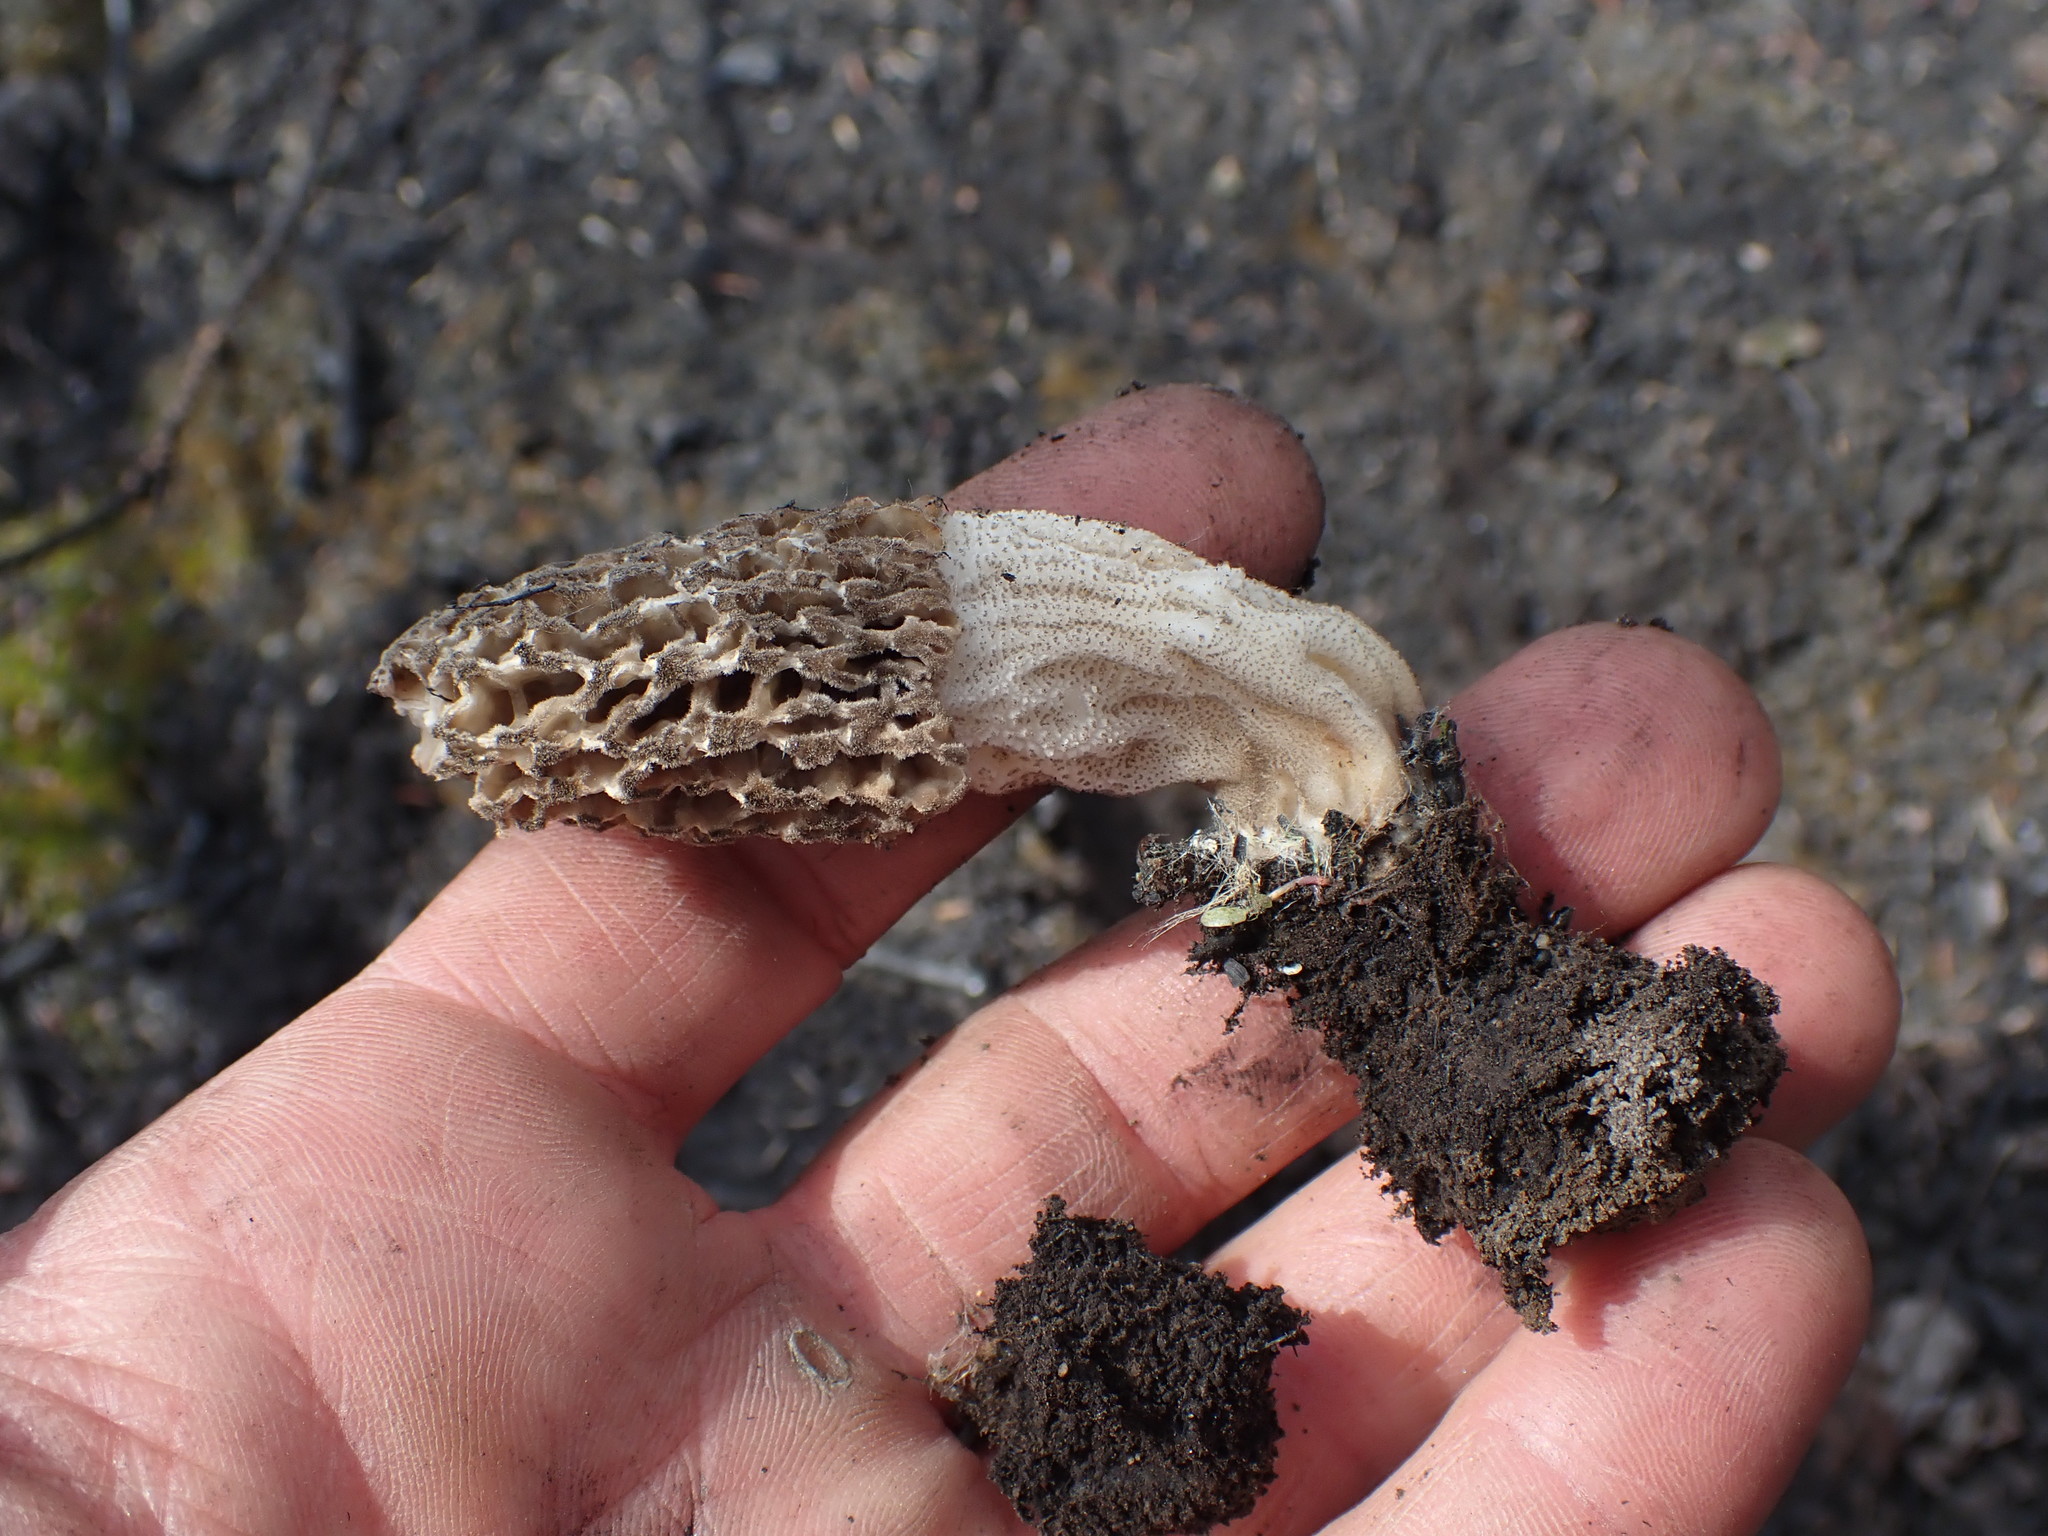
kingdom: Fungi
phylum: Ascomycota
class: Pezizomycetes
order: Pezizales
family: Morchellaceae
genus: Morchella
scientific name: Morchella tomentosa
